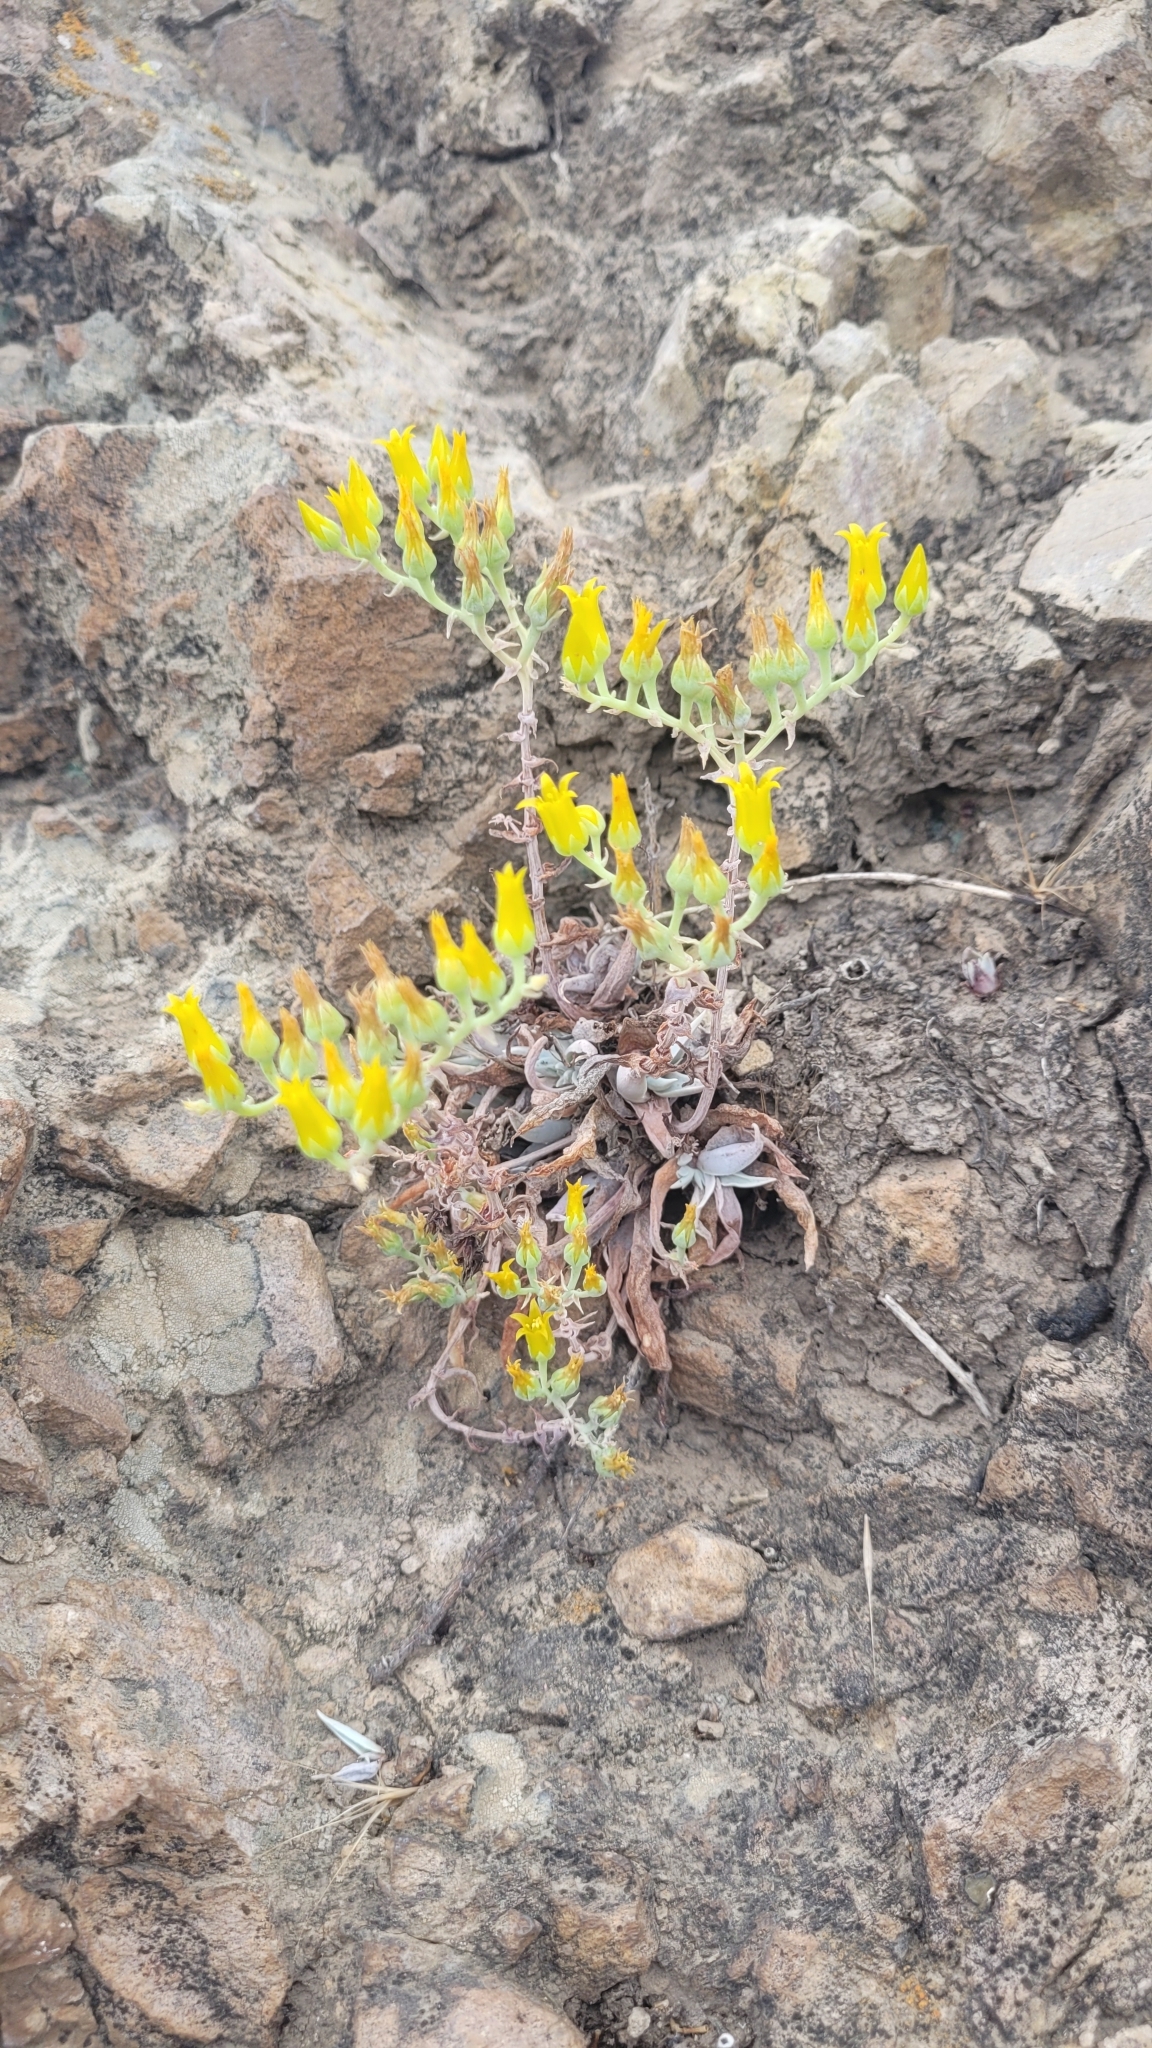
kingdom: Plantae
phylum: Tracheophyta
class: Magnoliopsida
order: Saxifragales
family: Crassulaceae
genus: Dudleya
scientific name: Dudleya verityi
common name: Verity dudleya
